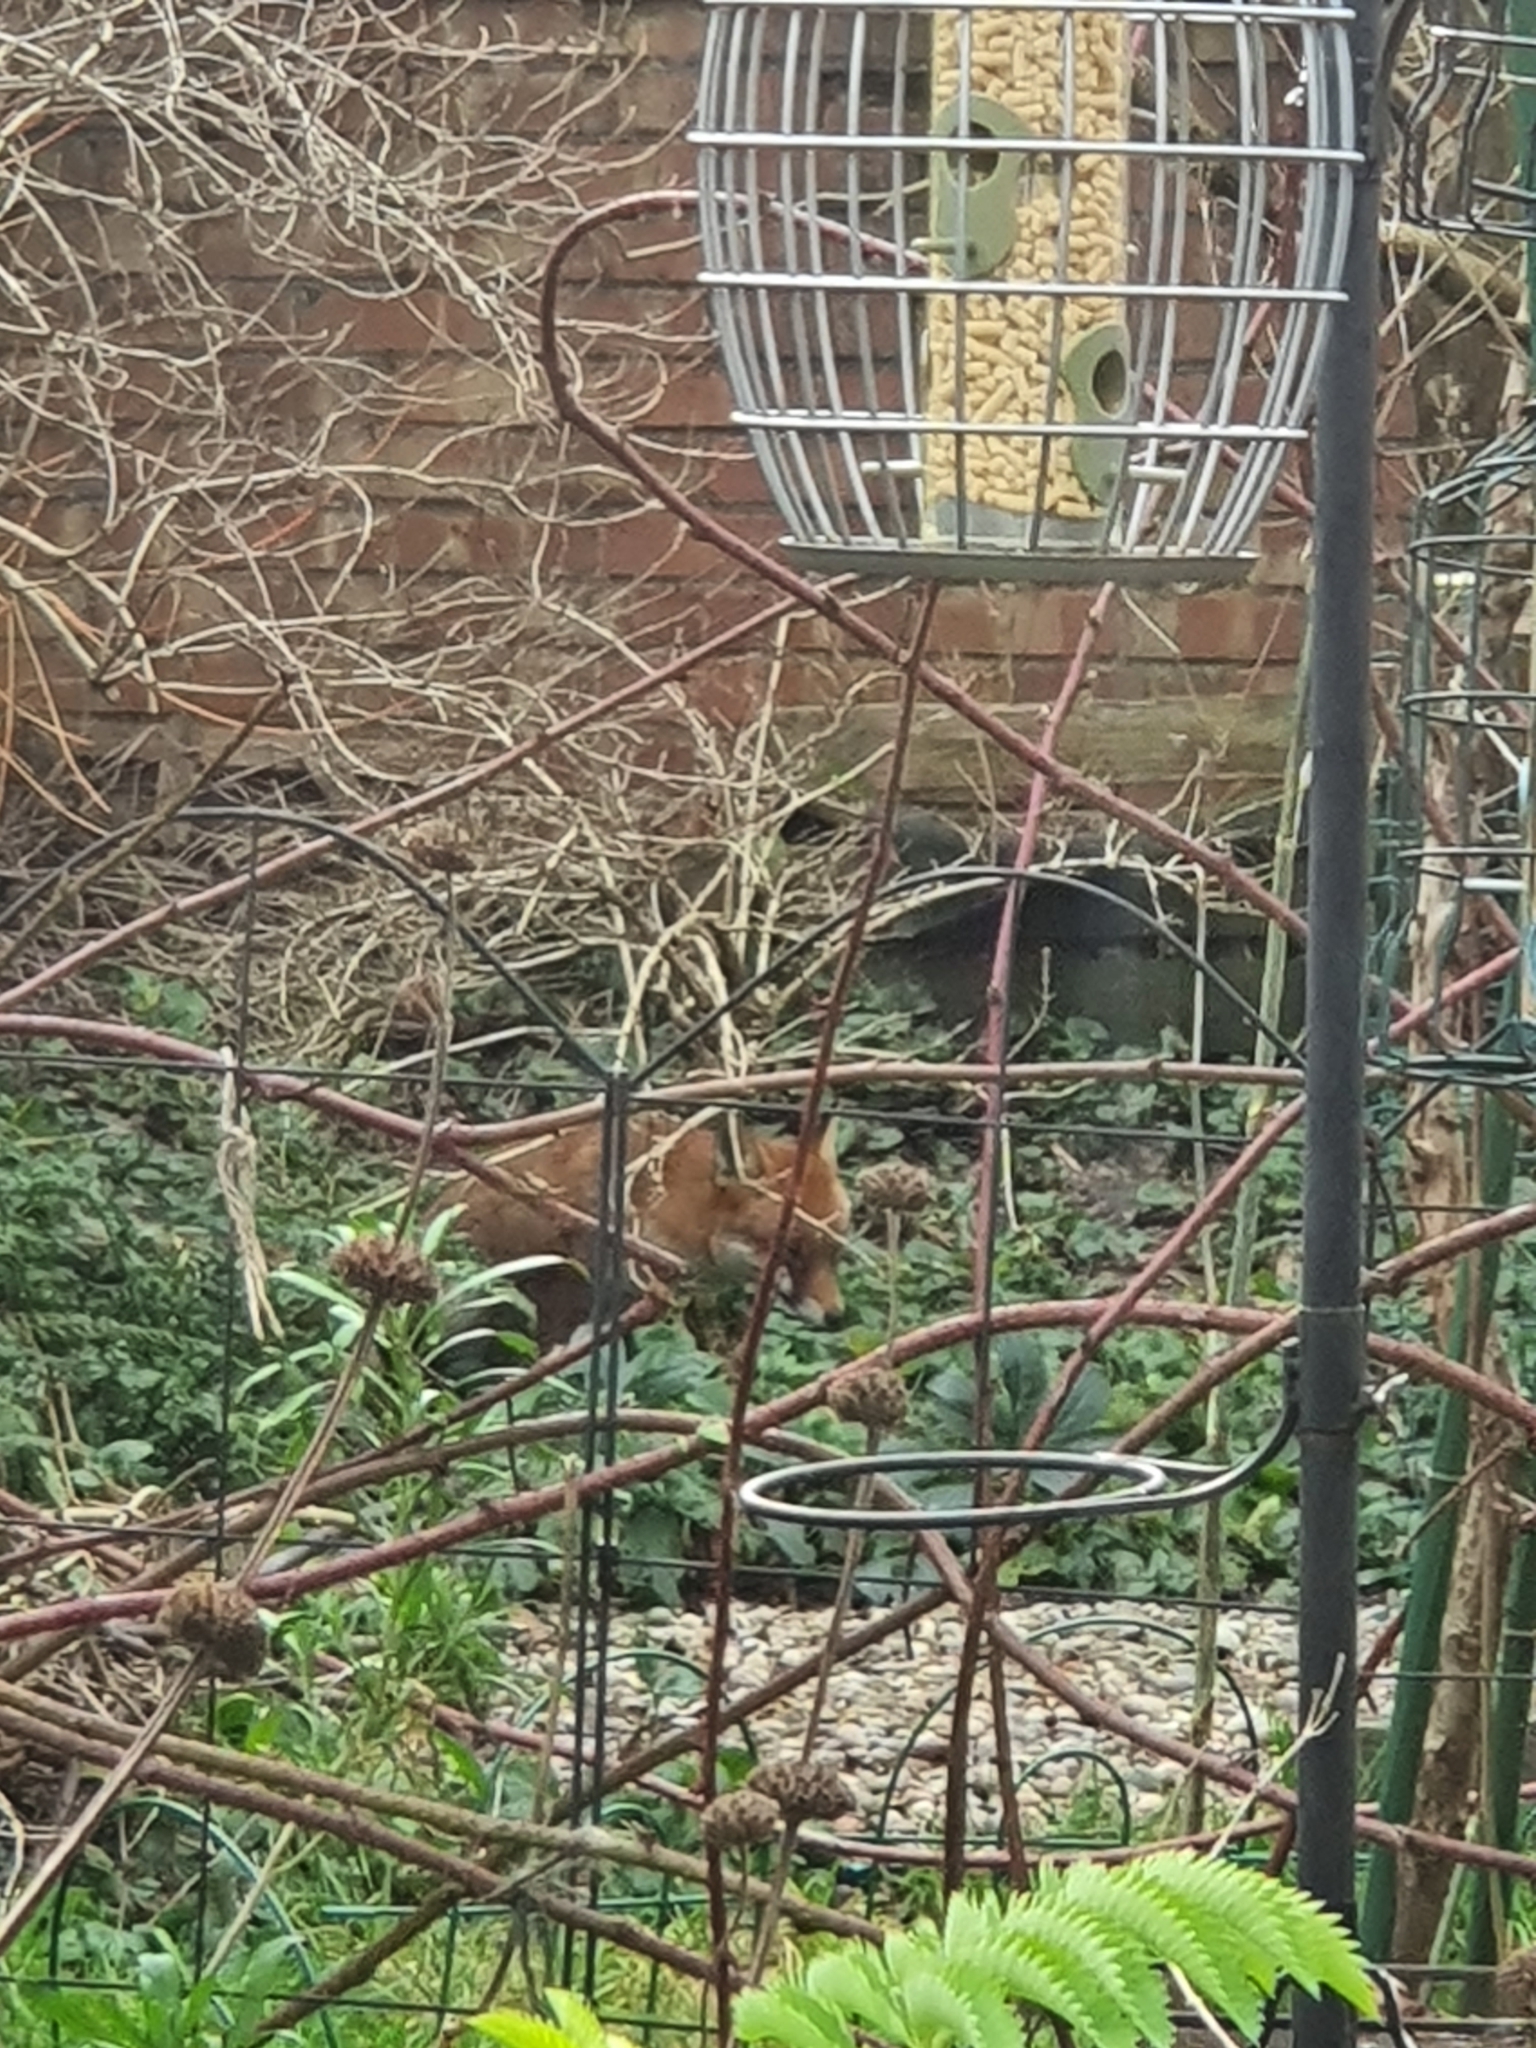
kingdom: Animalia
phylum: Chordata
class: Mammalia
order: Carnivora
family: Canidae
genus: Vulpes
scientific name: Vulpes vulpes
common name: Red fox
